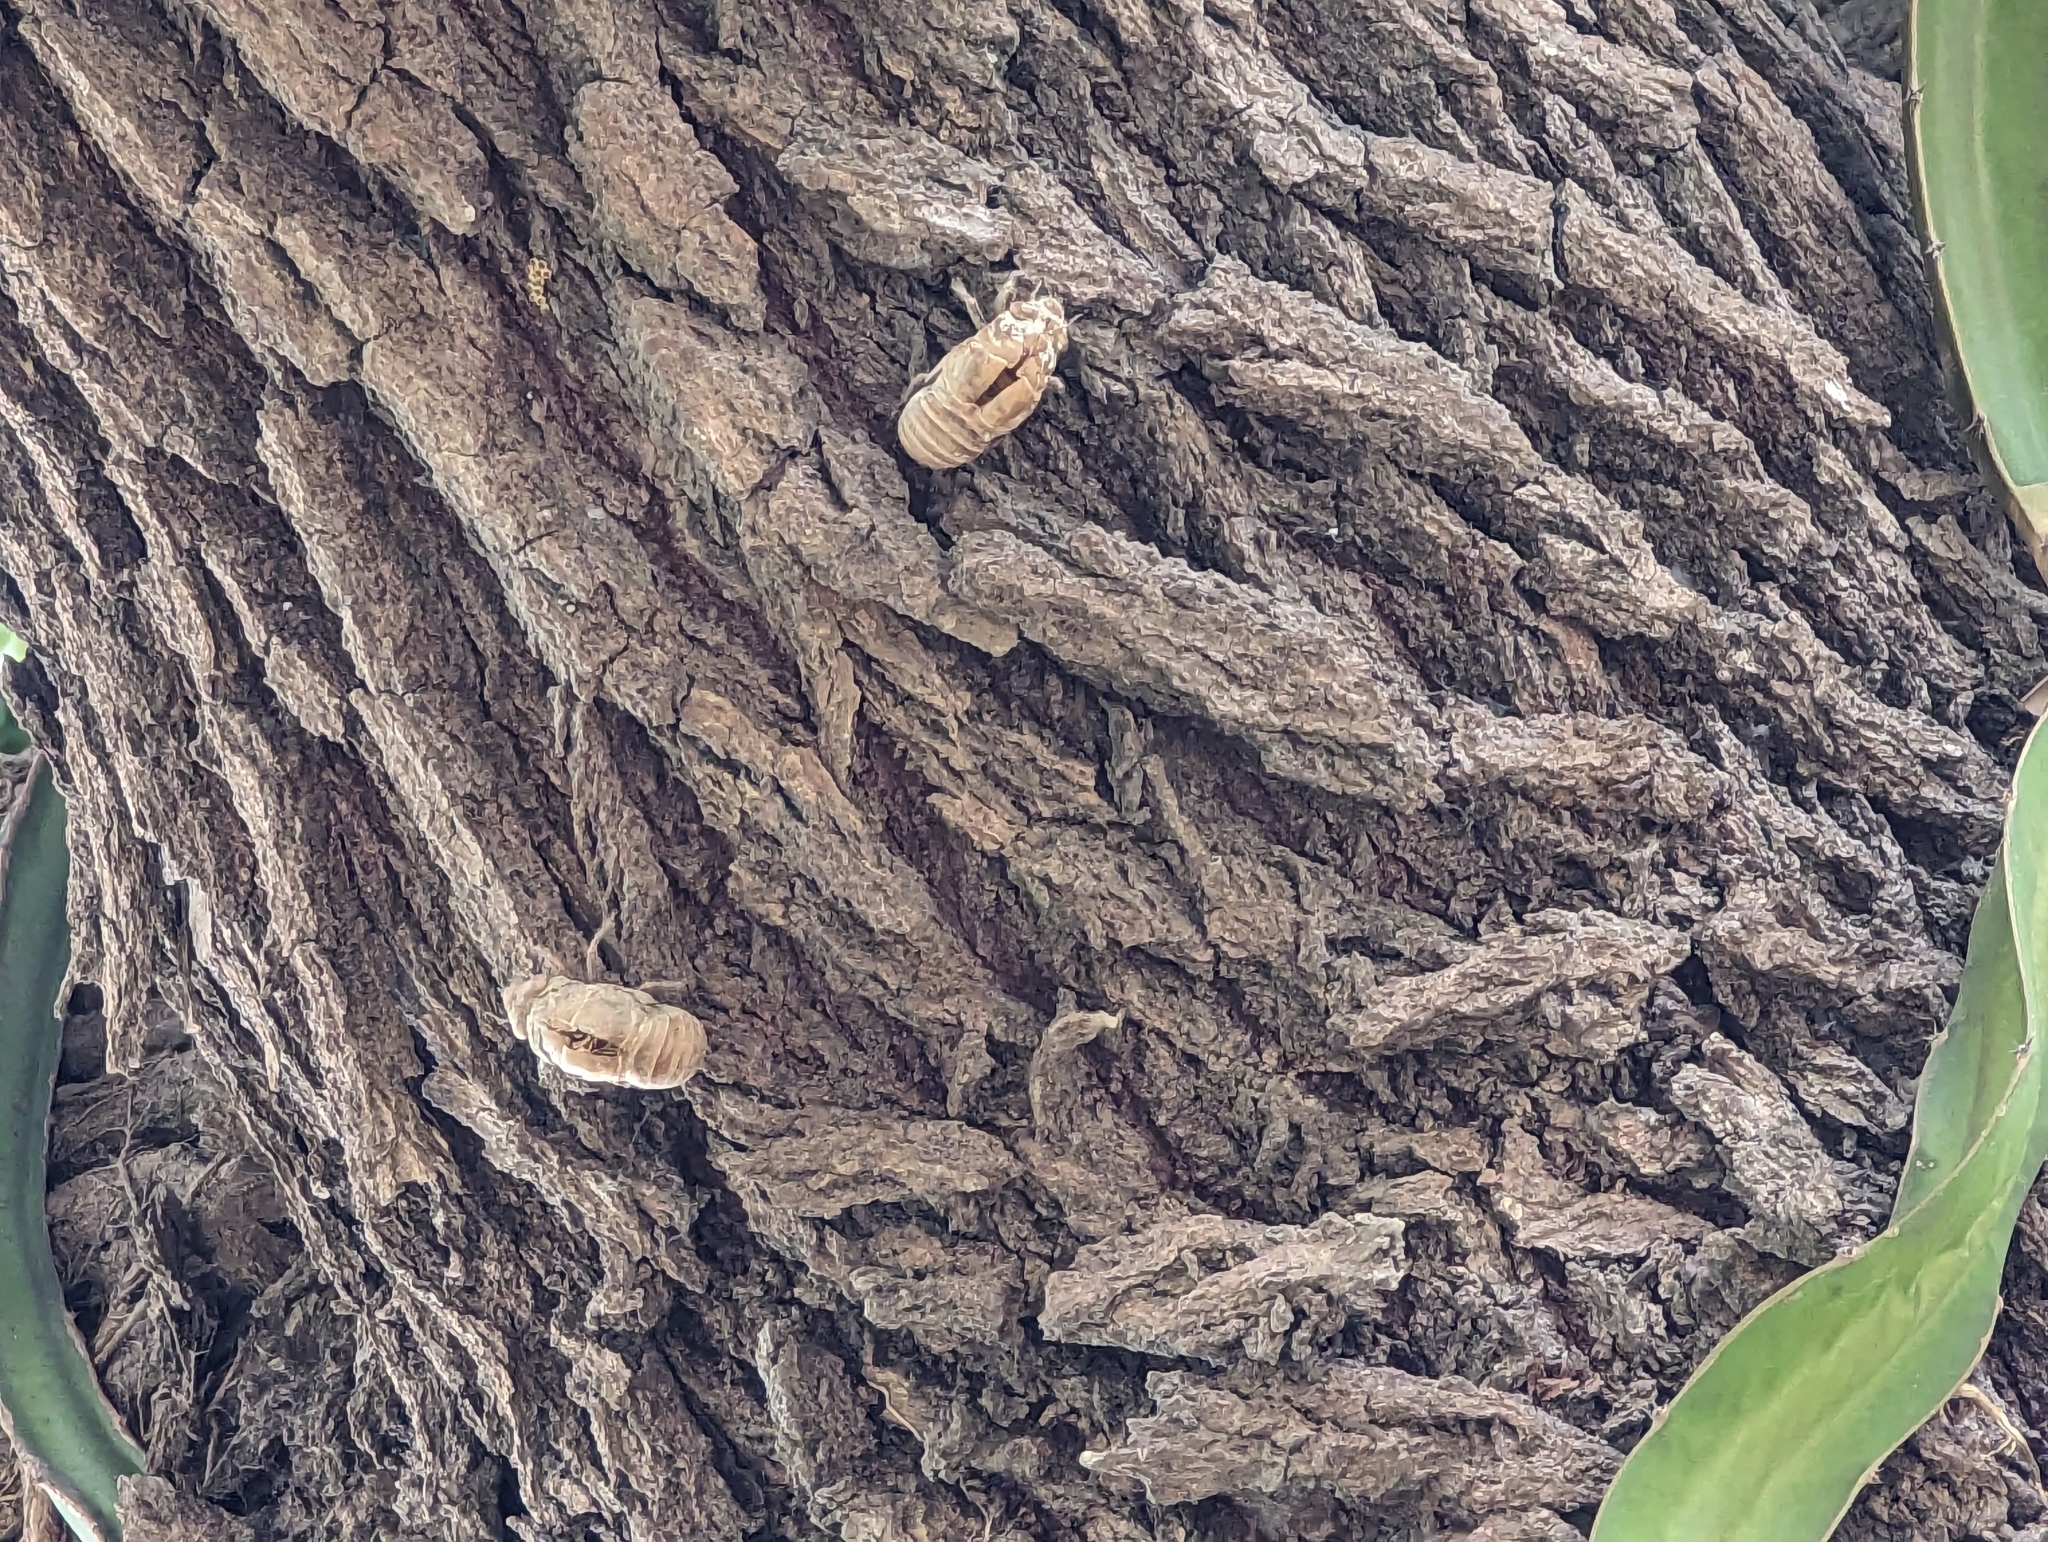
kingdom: Plantae
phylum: Tracheophyta
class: Magnoliopsida
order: Laurales
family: Lauraceae
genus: Cinnamomum
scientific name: Cinnamomum camphora
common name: Camphortree
